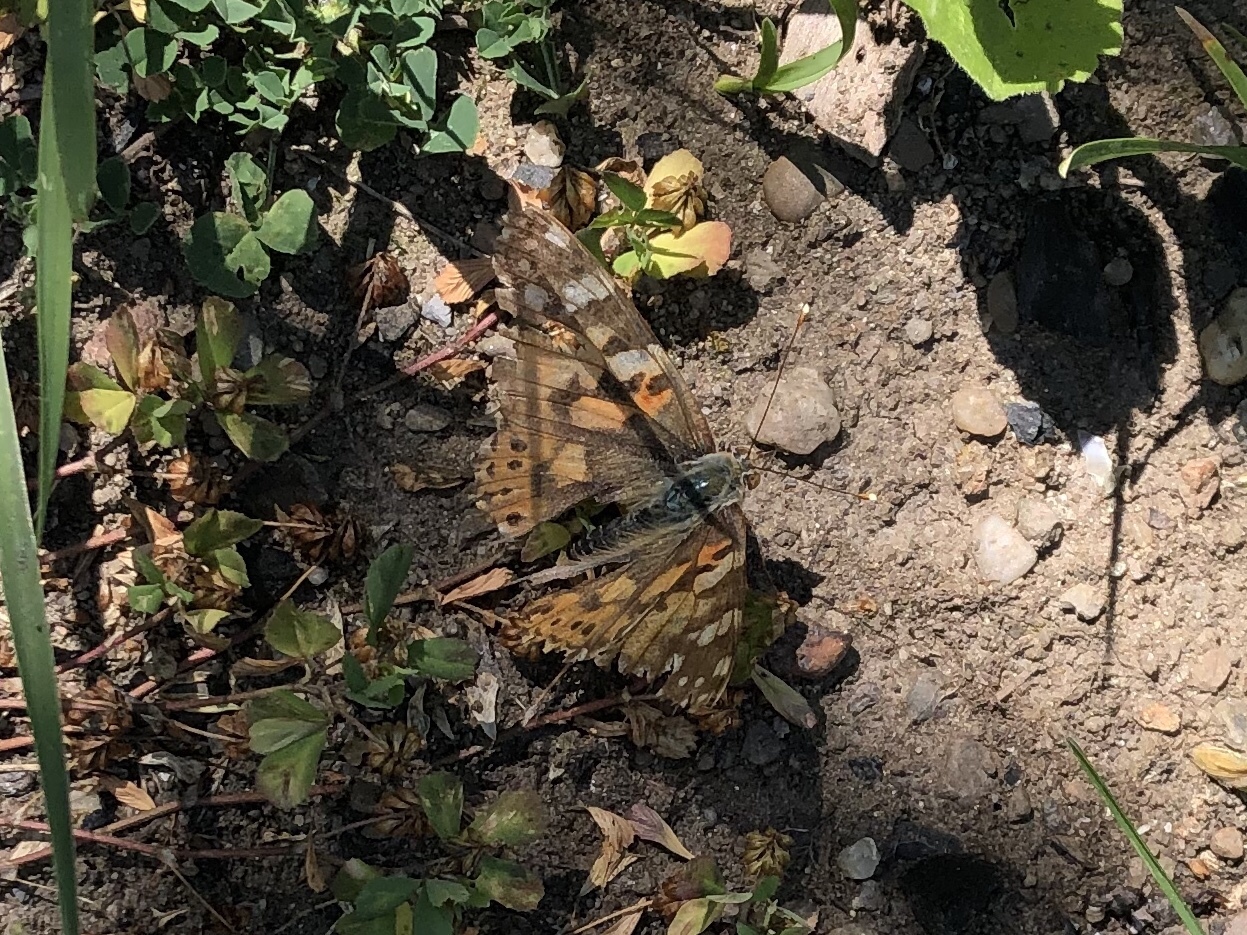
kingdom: Animalia
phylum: Arthropoda
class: Insecta
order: Lepidoptera
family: Nymphalidae
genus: Vanessa
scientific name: Vanessa cardui
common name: Painted lady
